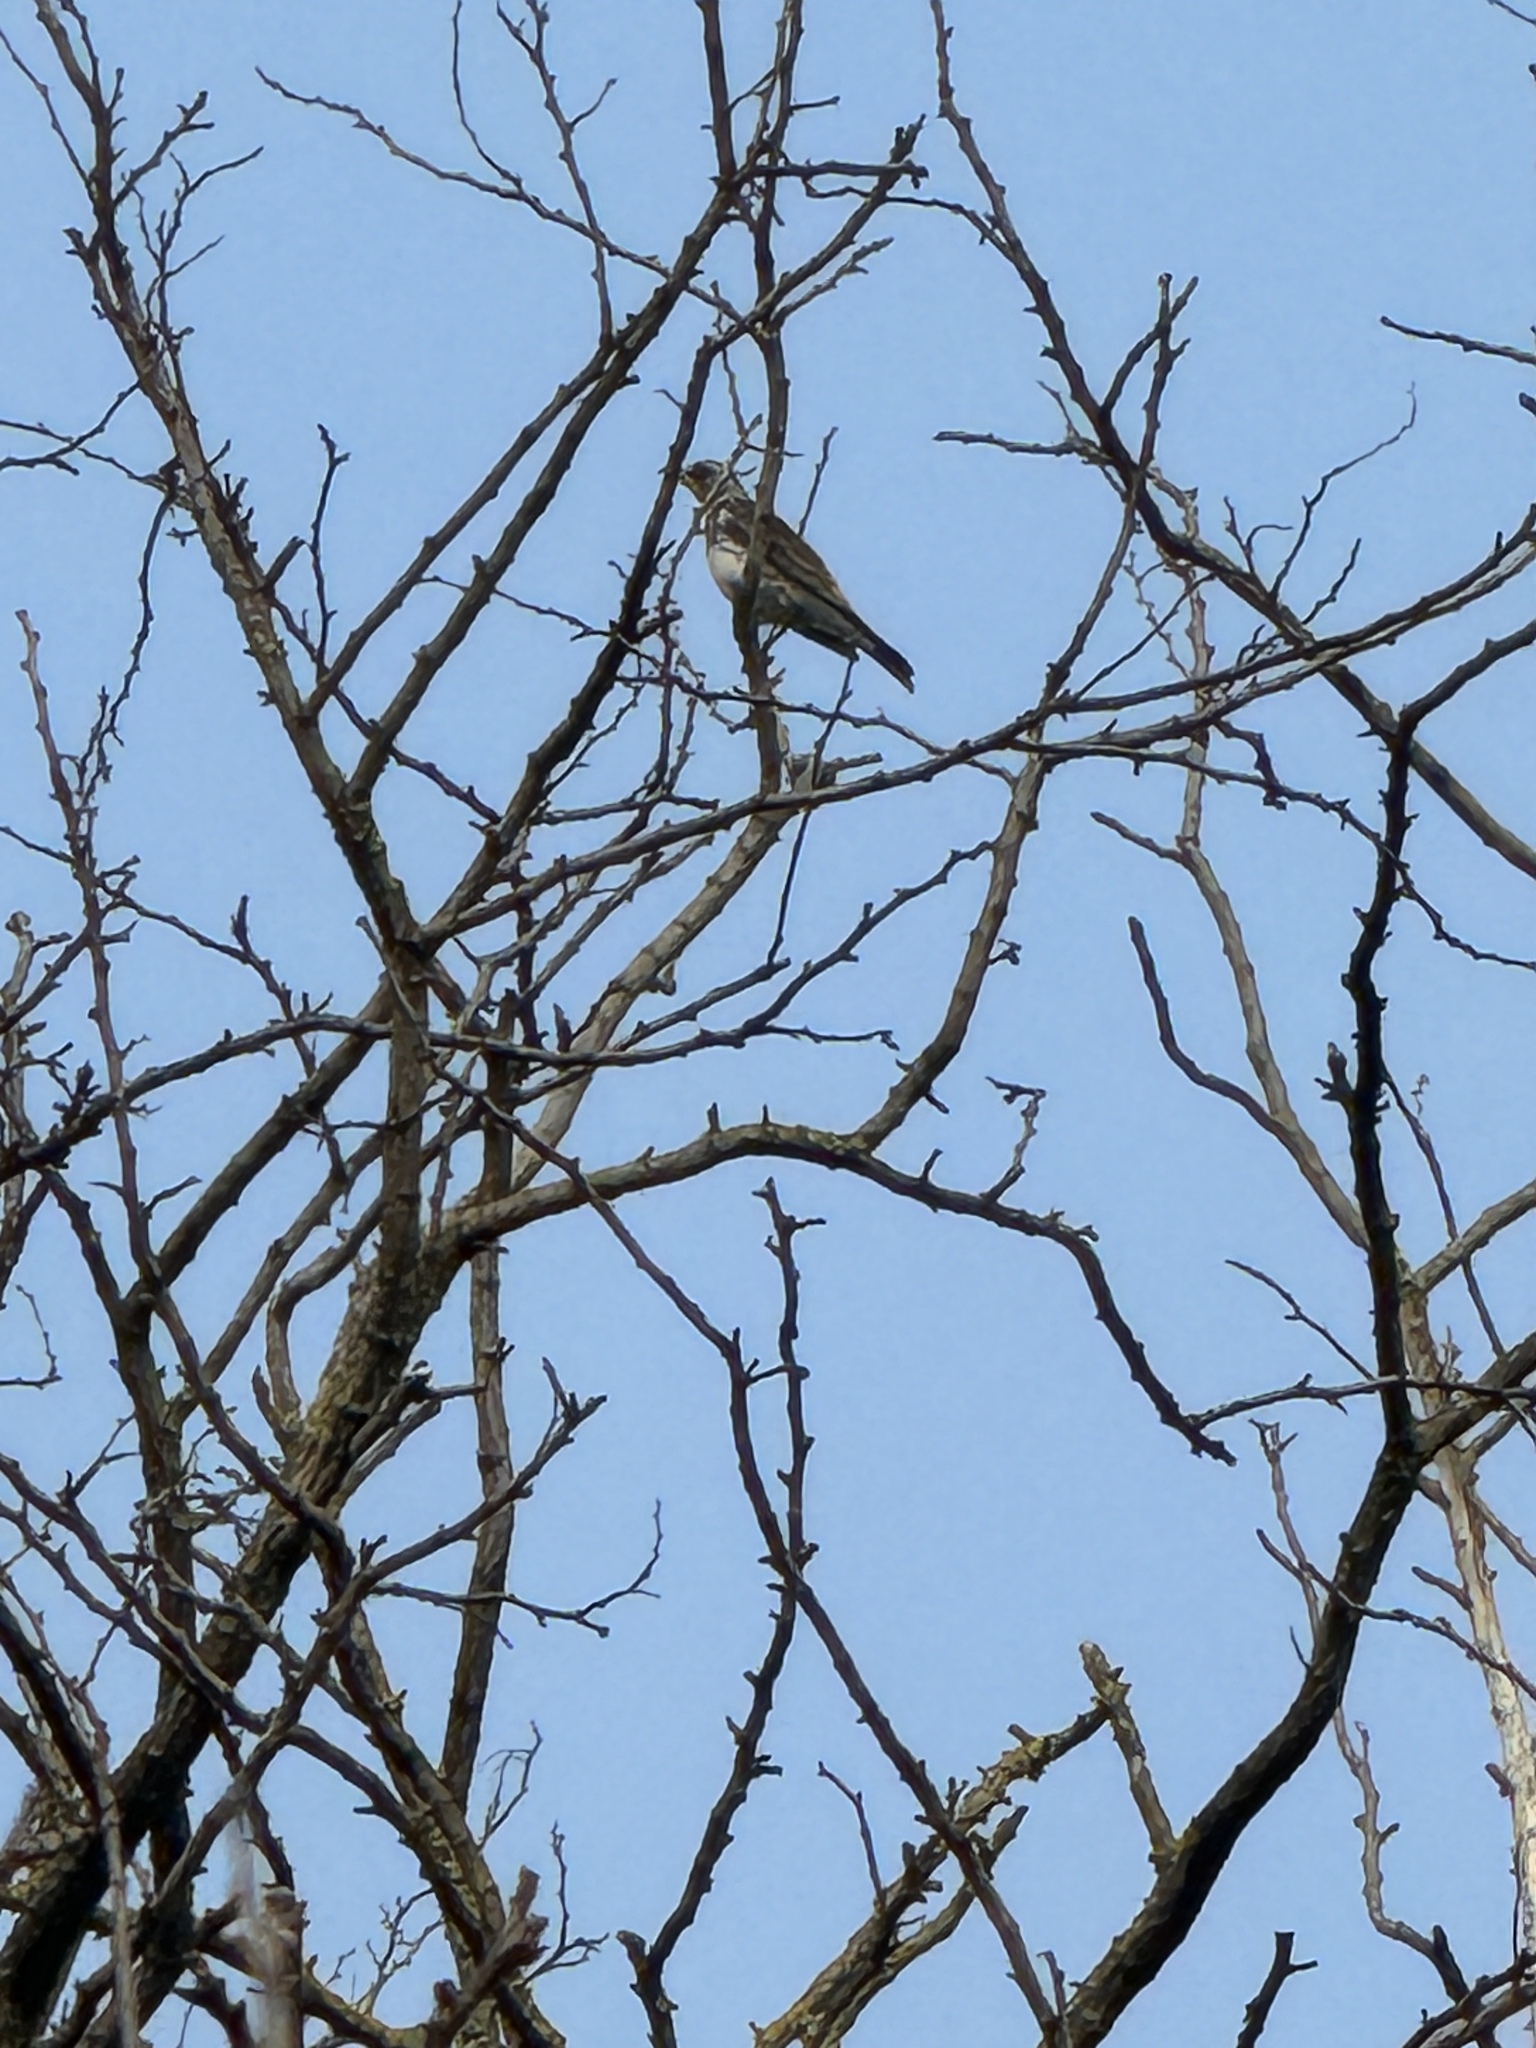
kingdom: Animalia
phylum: Chordata
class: Aves
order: Passeriformes
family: Turdidae
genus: Turdus
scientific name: Turdus pilaris
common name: Fieldfare
